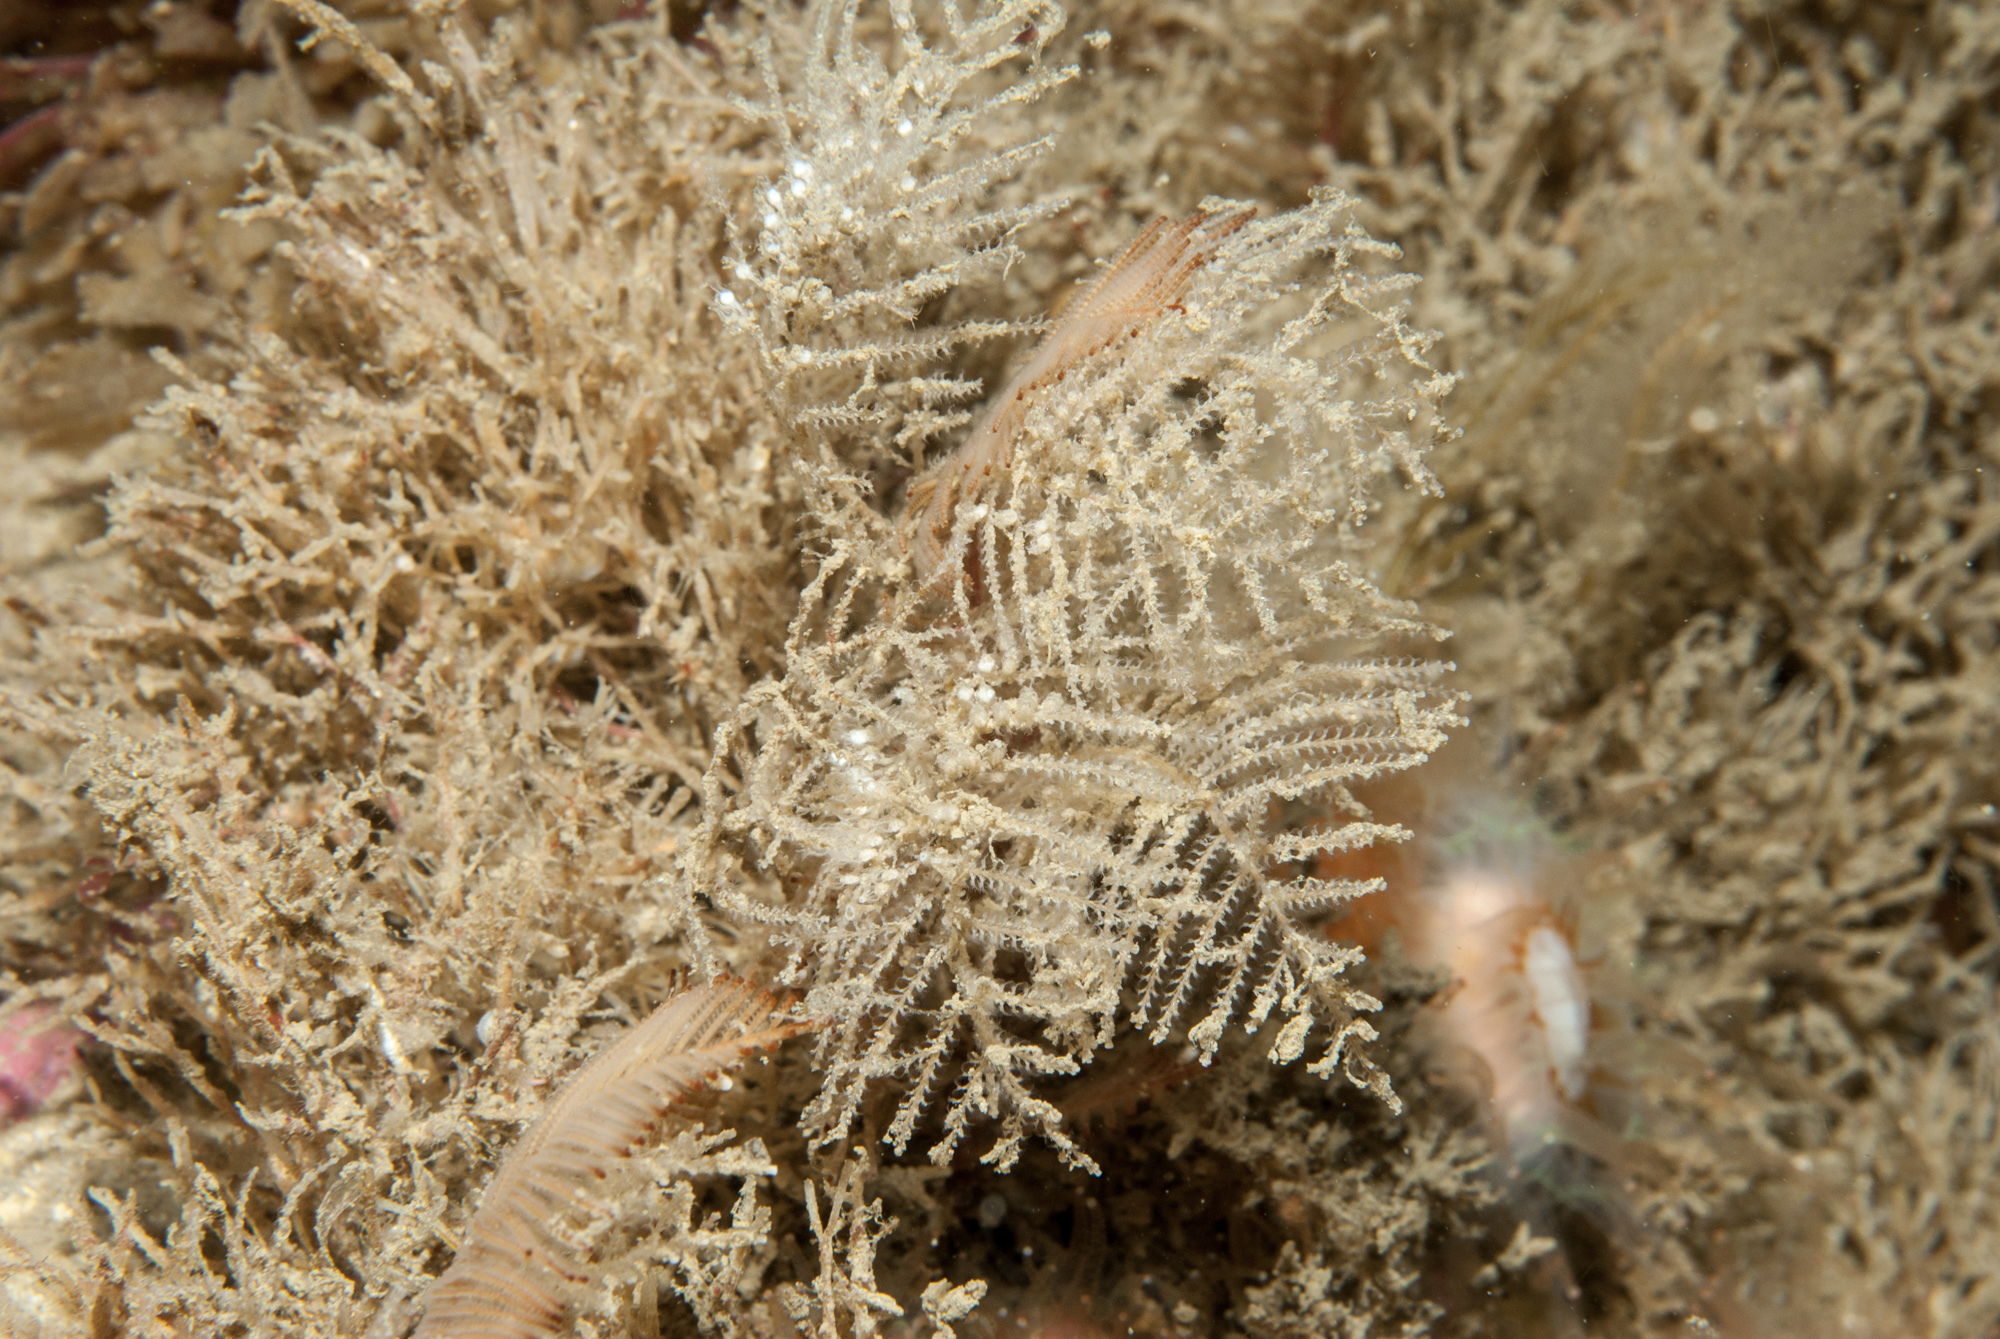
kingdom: Animalia
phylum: Cnidaria
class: Hydrozoa
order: Leptothecata
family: Sertulariidae
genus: Diphasia
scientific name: Diphasia fallax
